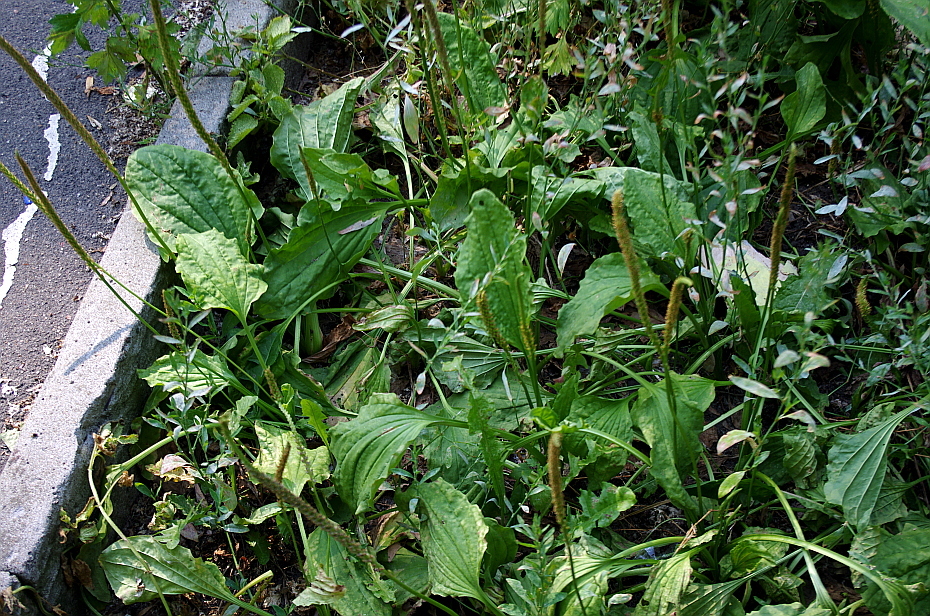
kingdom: Plantae
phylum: Tracheophyta
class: Magnoliopsida
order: Lamiales
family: Plantaginaceae
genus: Plantago
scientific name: Plantago major
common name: Common plantain
